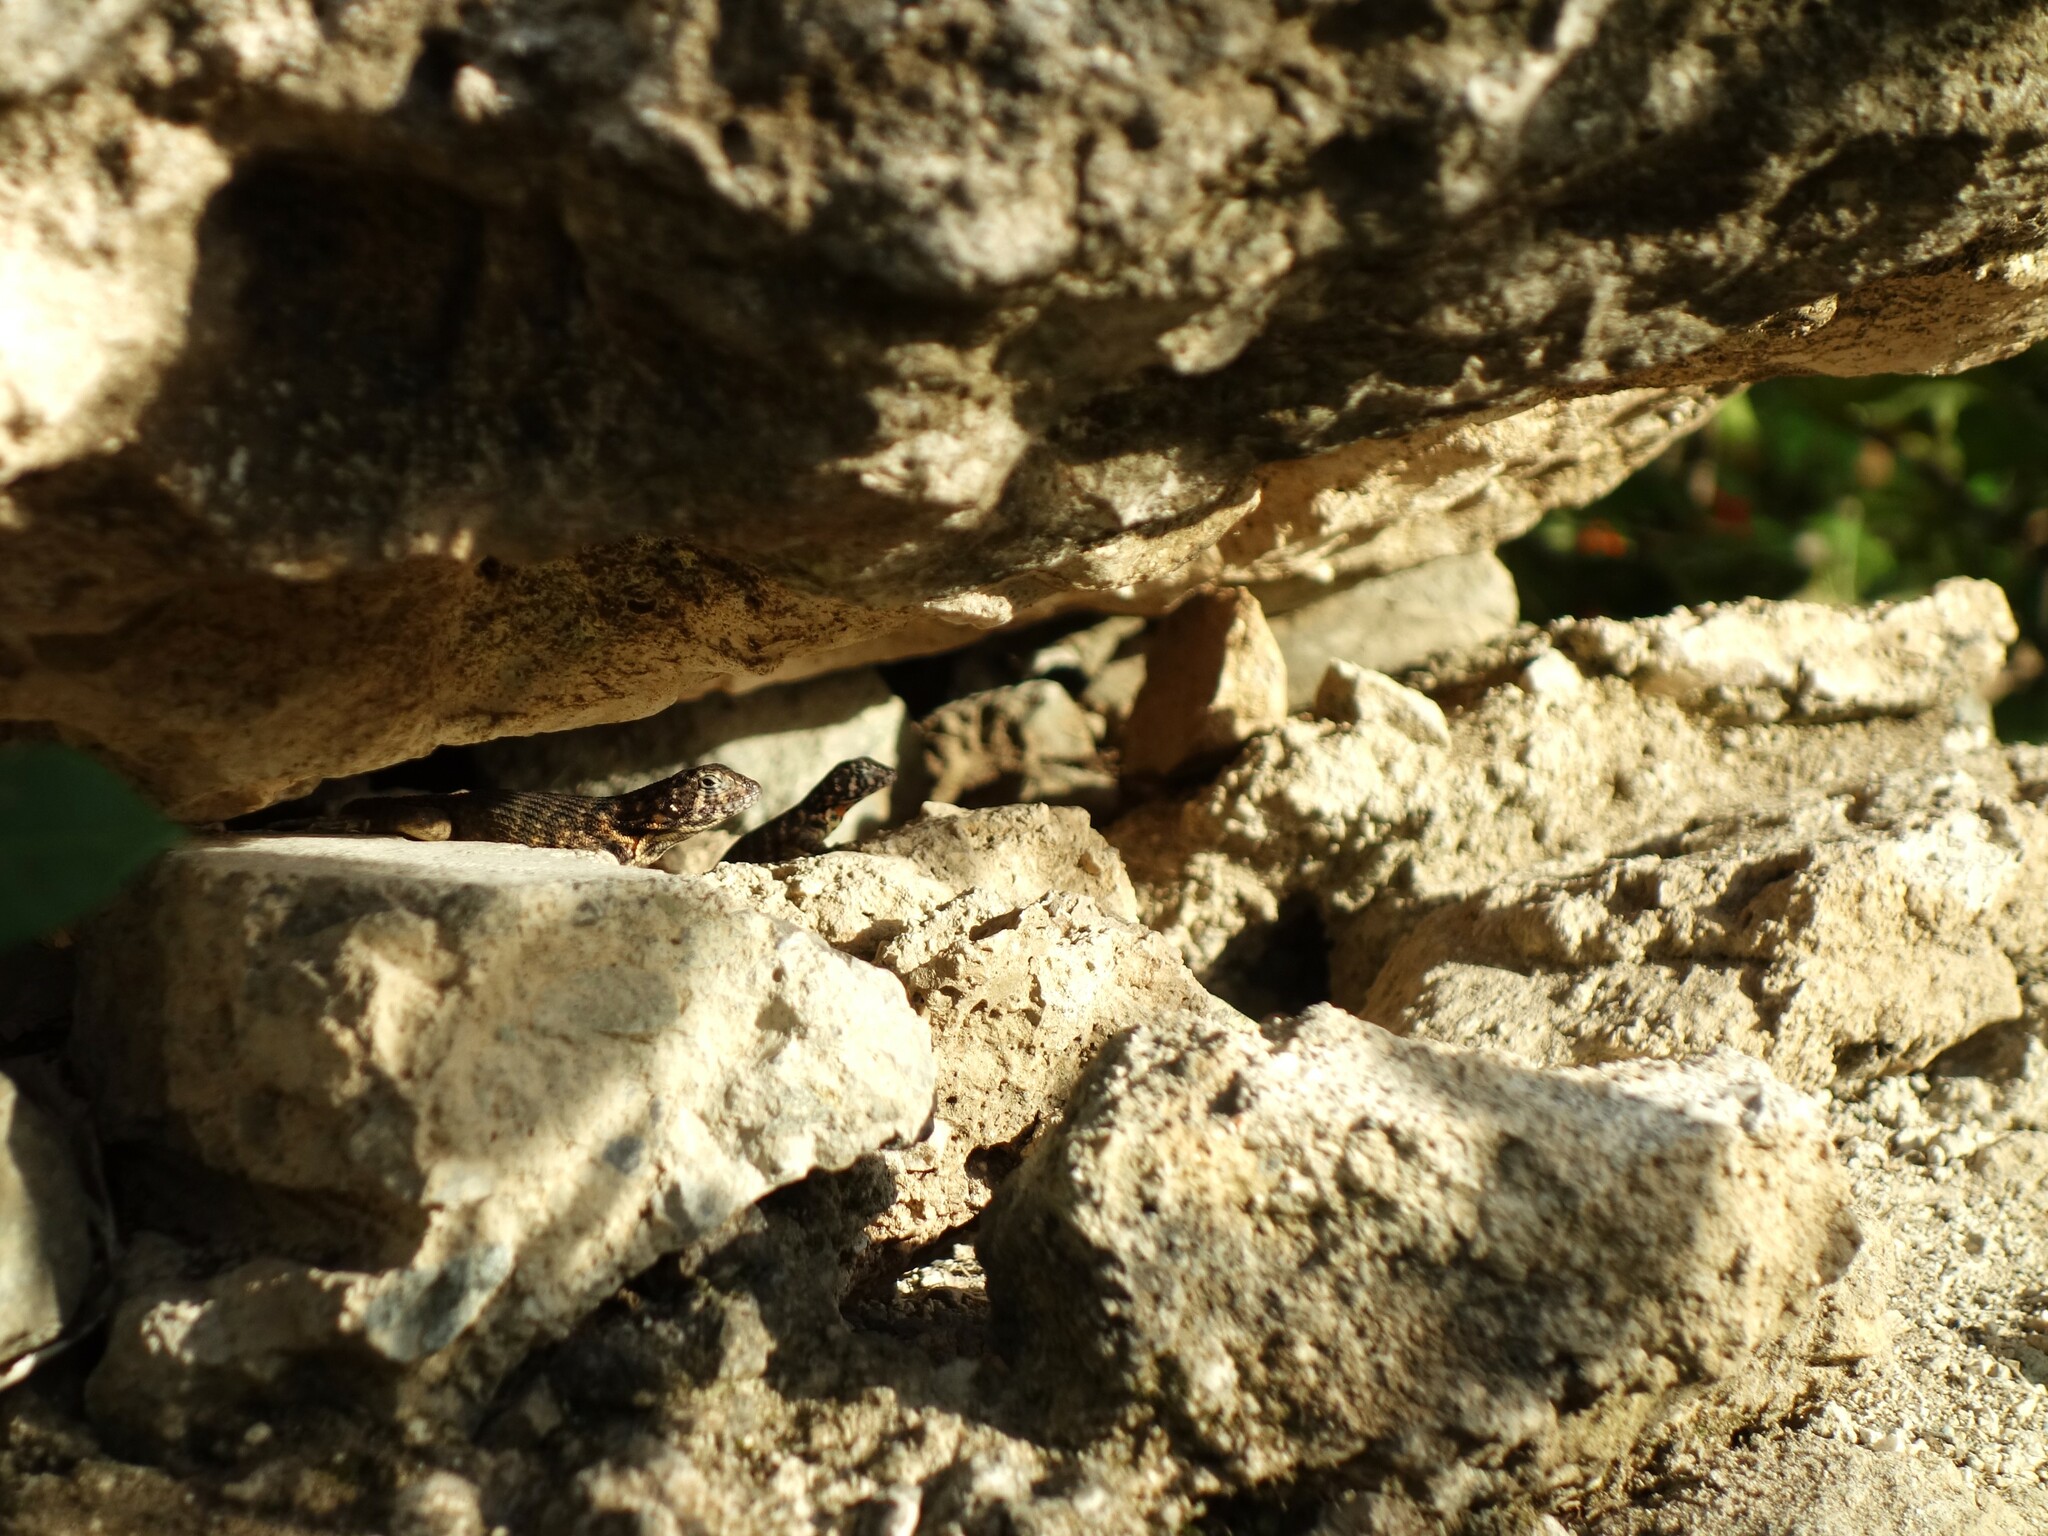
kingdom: Animalia
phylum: Chordata
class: Squamata
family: Leiocephalidae
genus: Leiocephalus
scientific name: Leiocephalus carinatus
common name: Northern curly-tailed lizard
